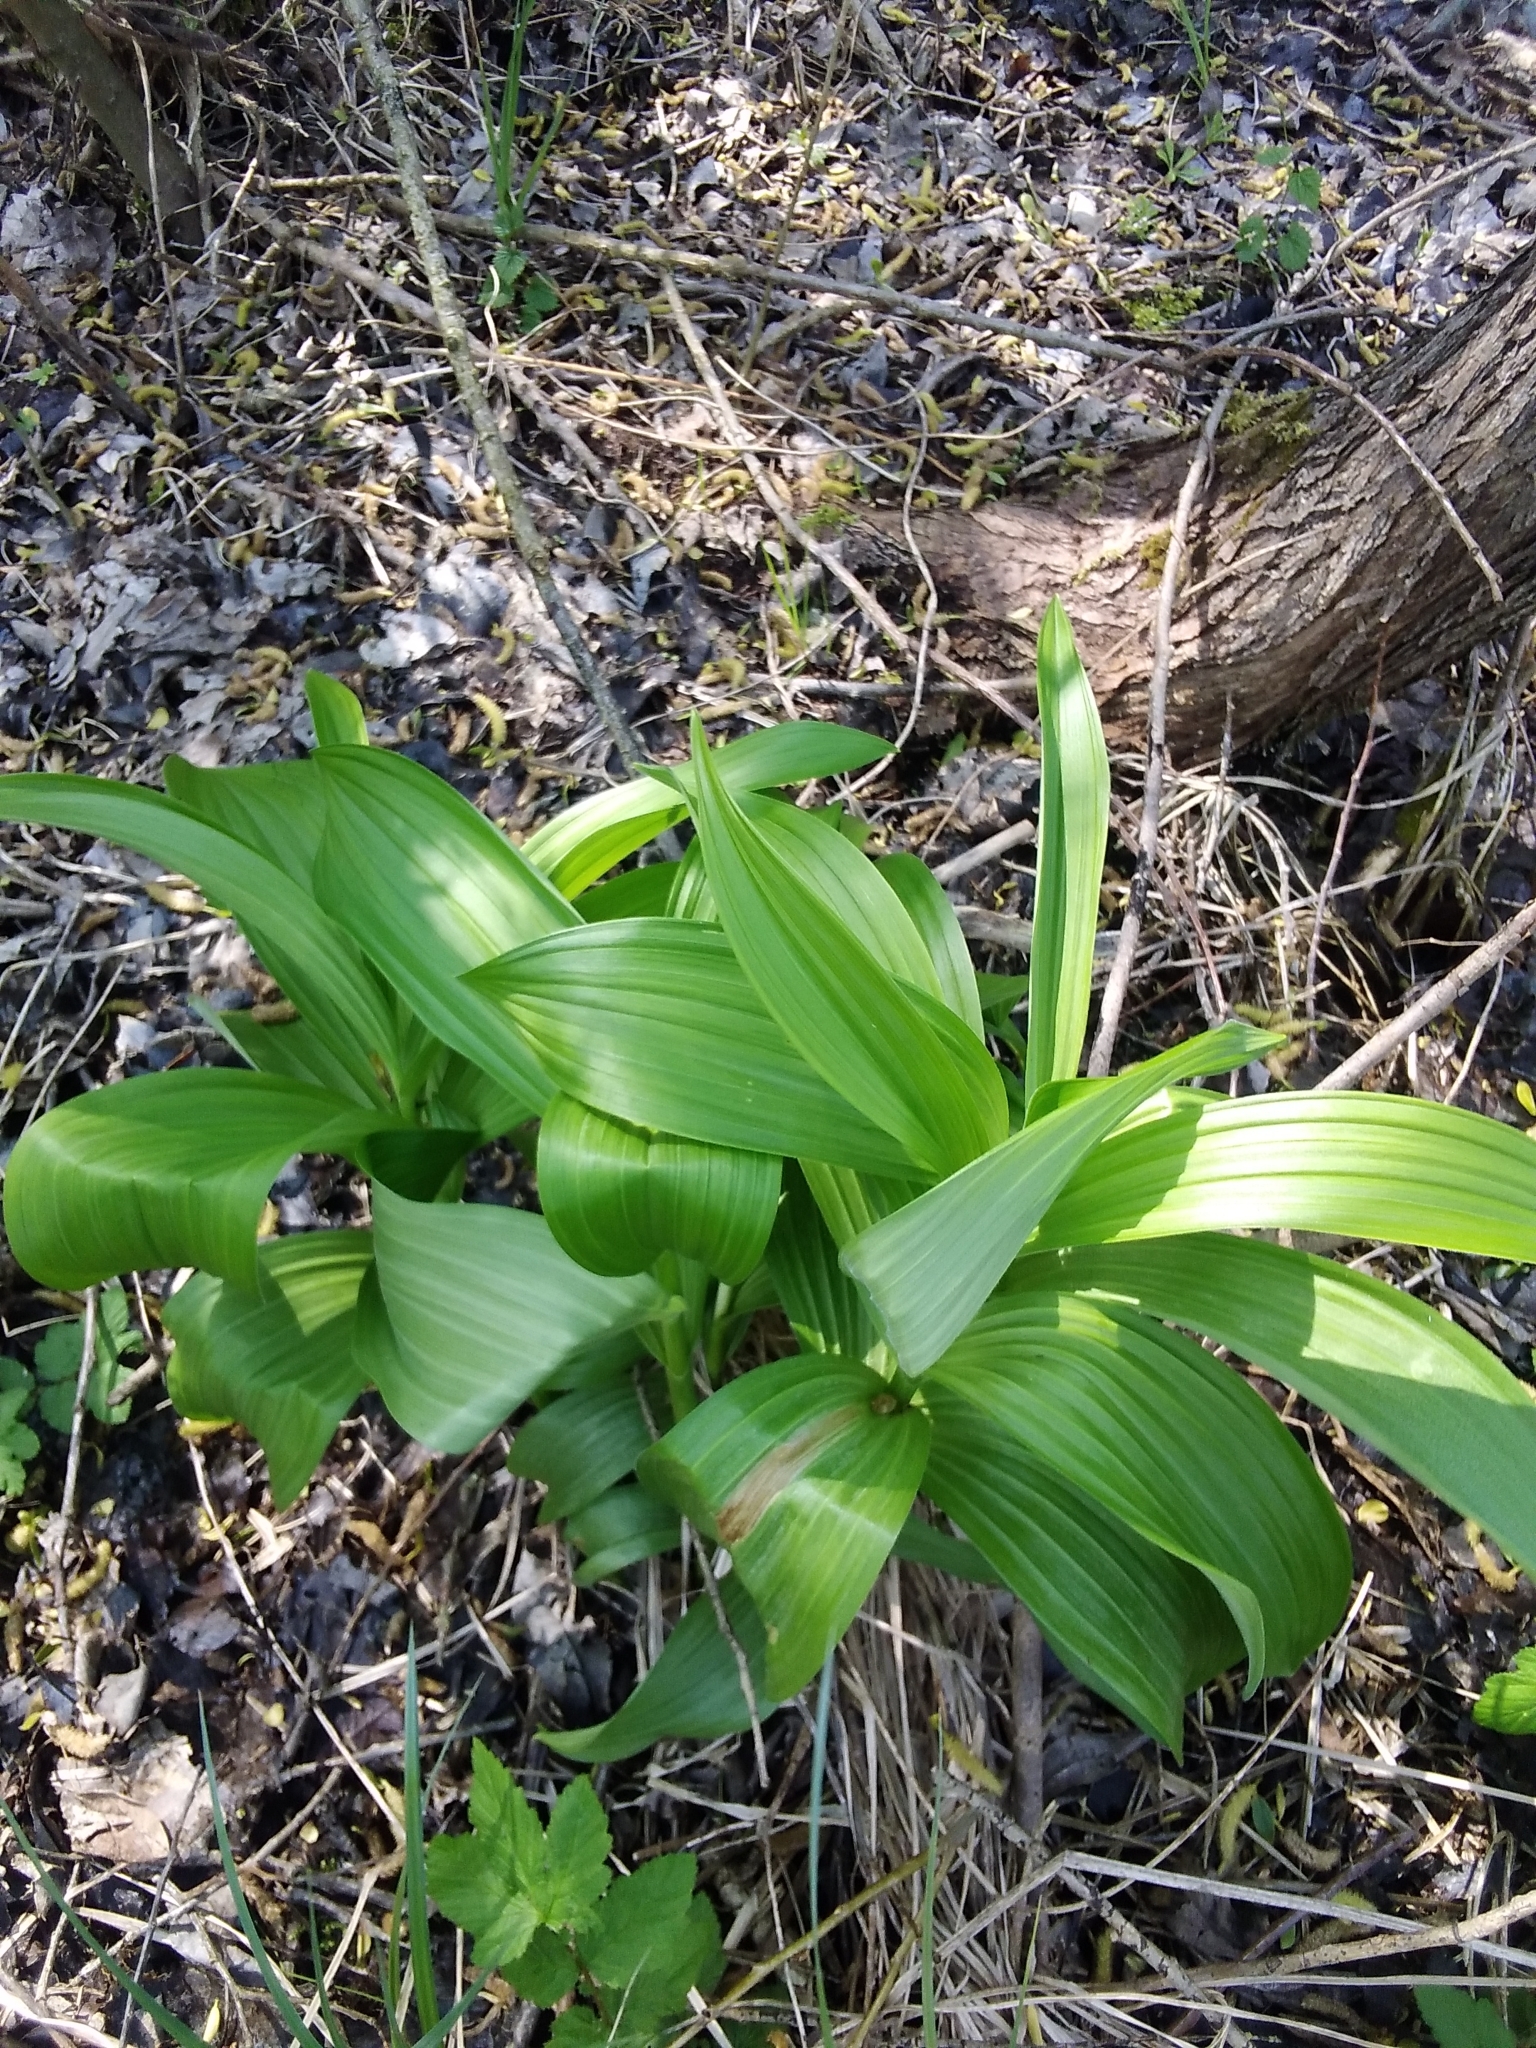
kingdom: Plantae
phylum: Tracheophyta
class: Liliopsida
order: Liliales
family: Melanthiaceae
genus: Veratrum
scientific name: Veratrum album
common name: White veratrum
